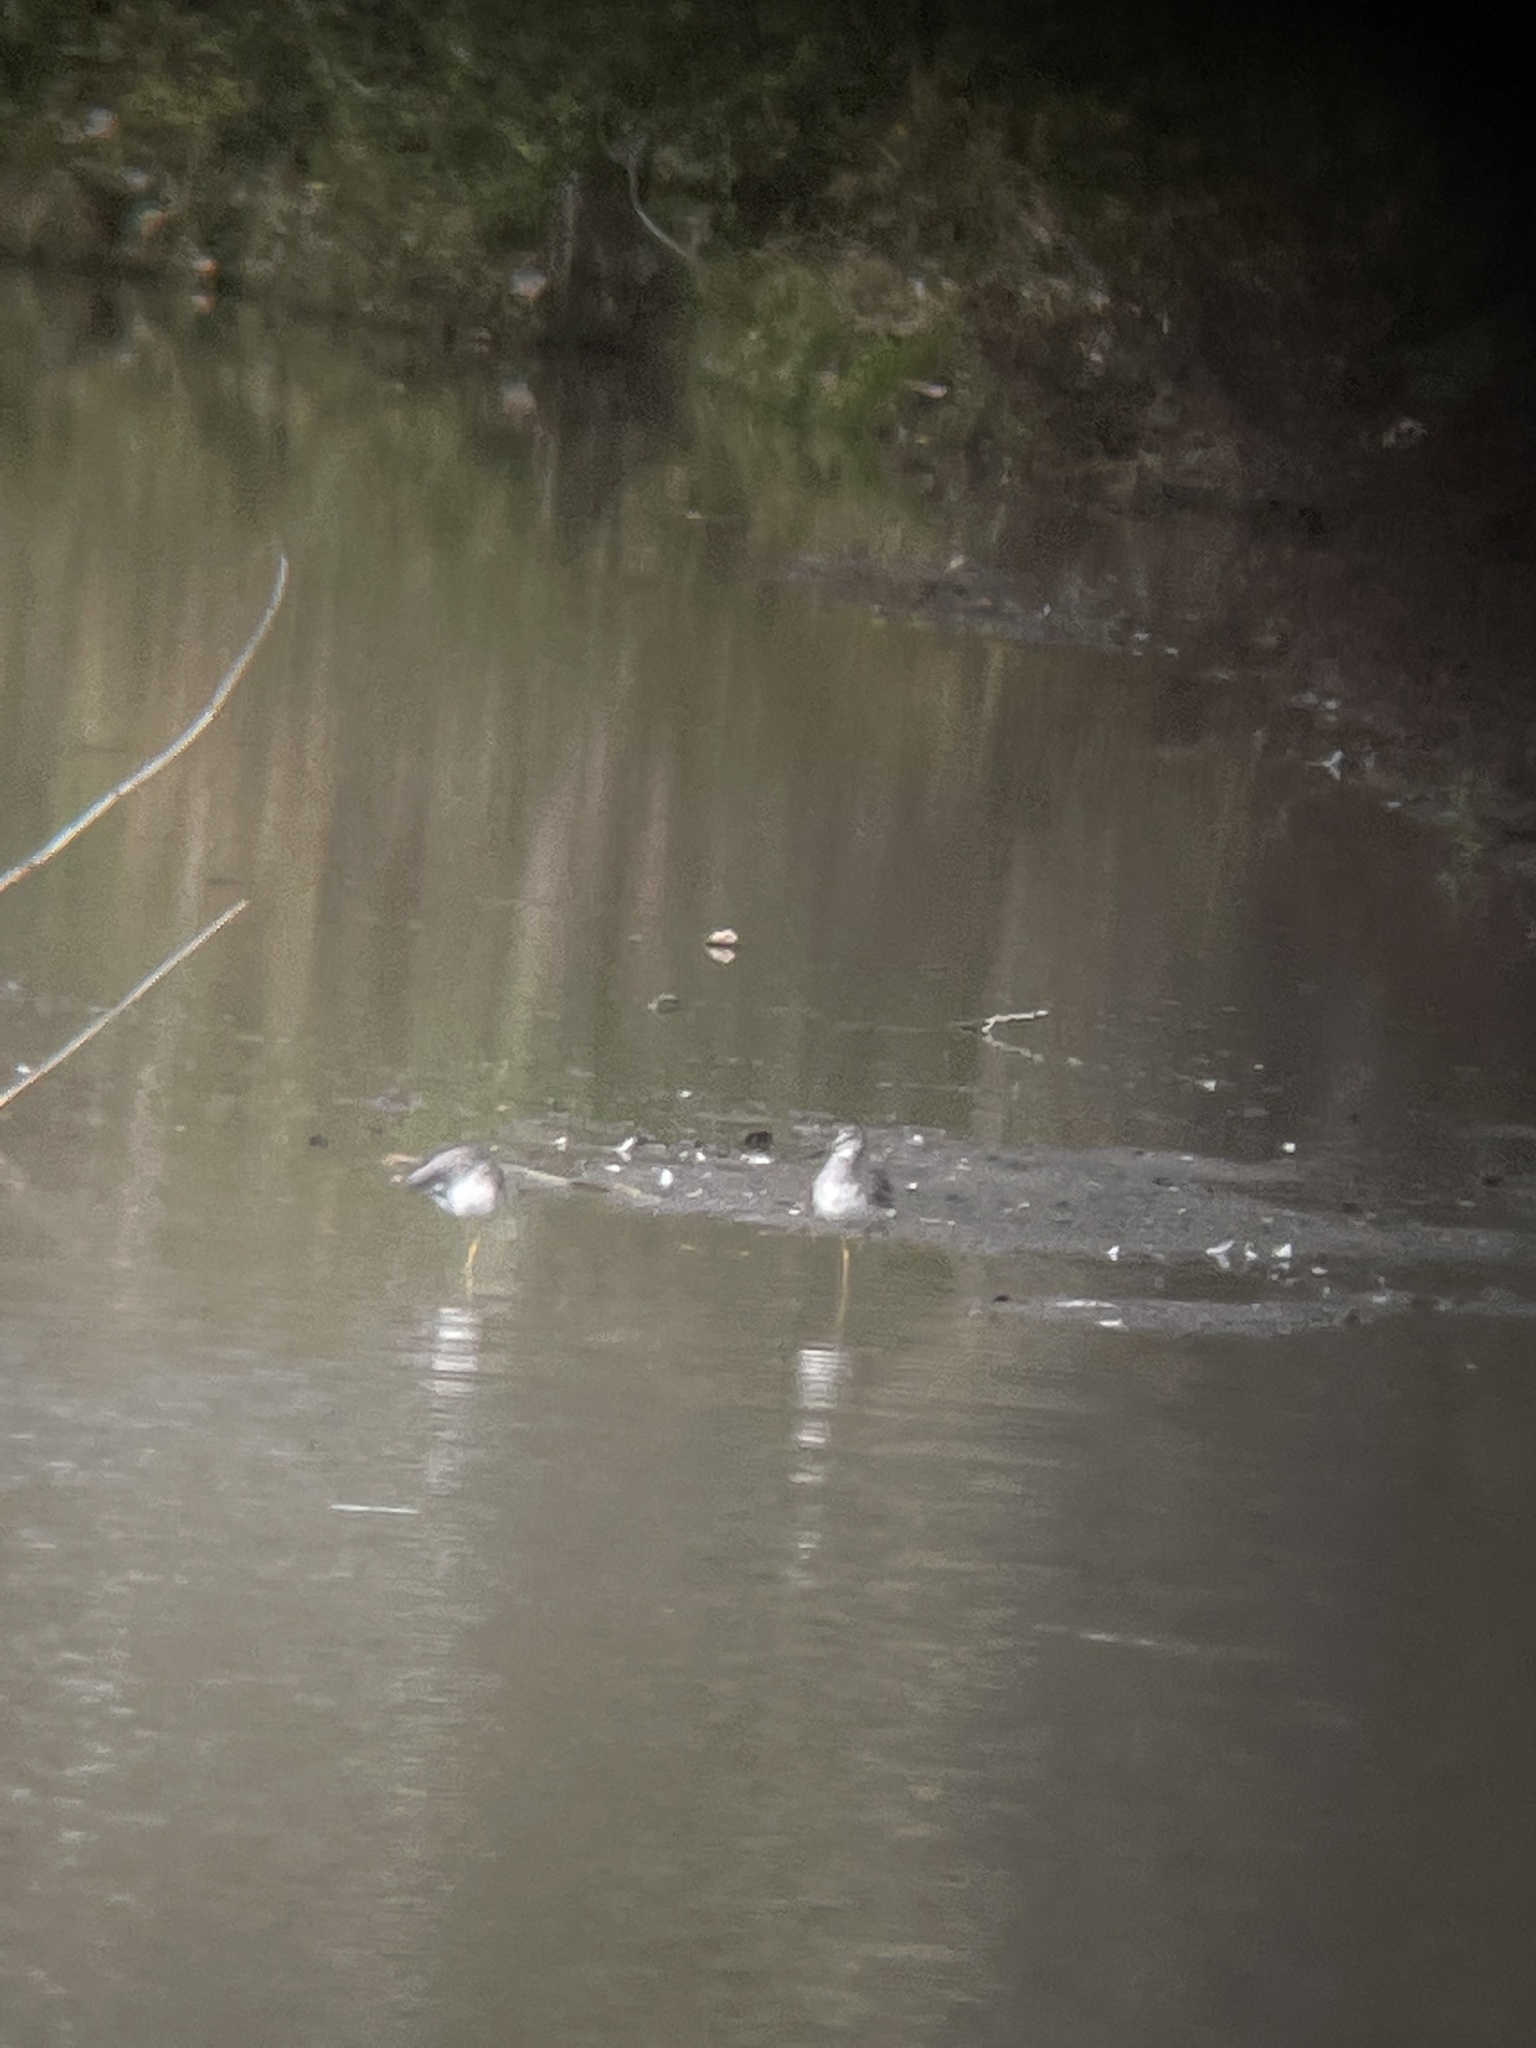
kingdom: Animalia
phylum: Chordata
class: Aves
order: Charadriiformes
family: Scolopacidae
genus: Tringa
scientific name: Tringa melanoleuca
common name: Greater yellowlegs
